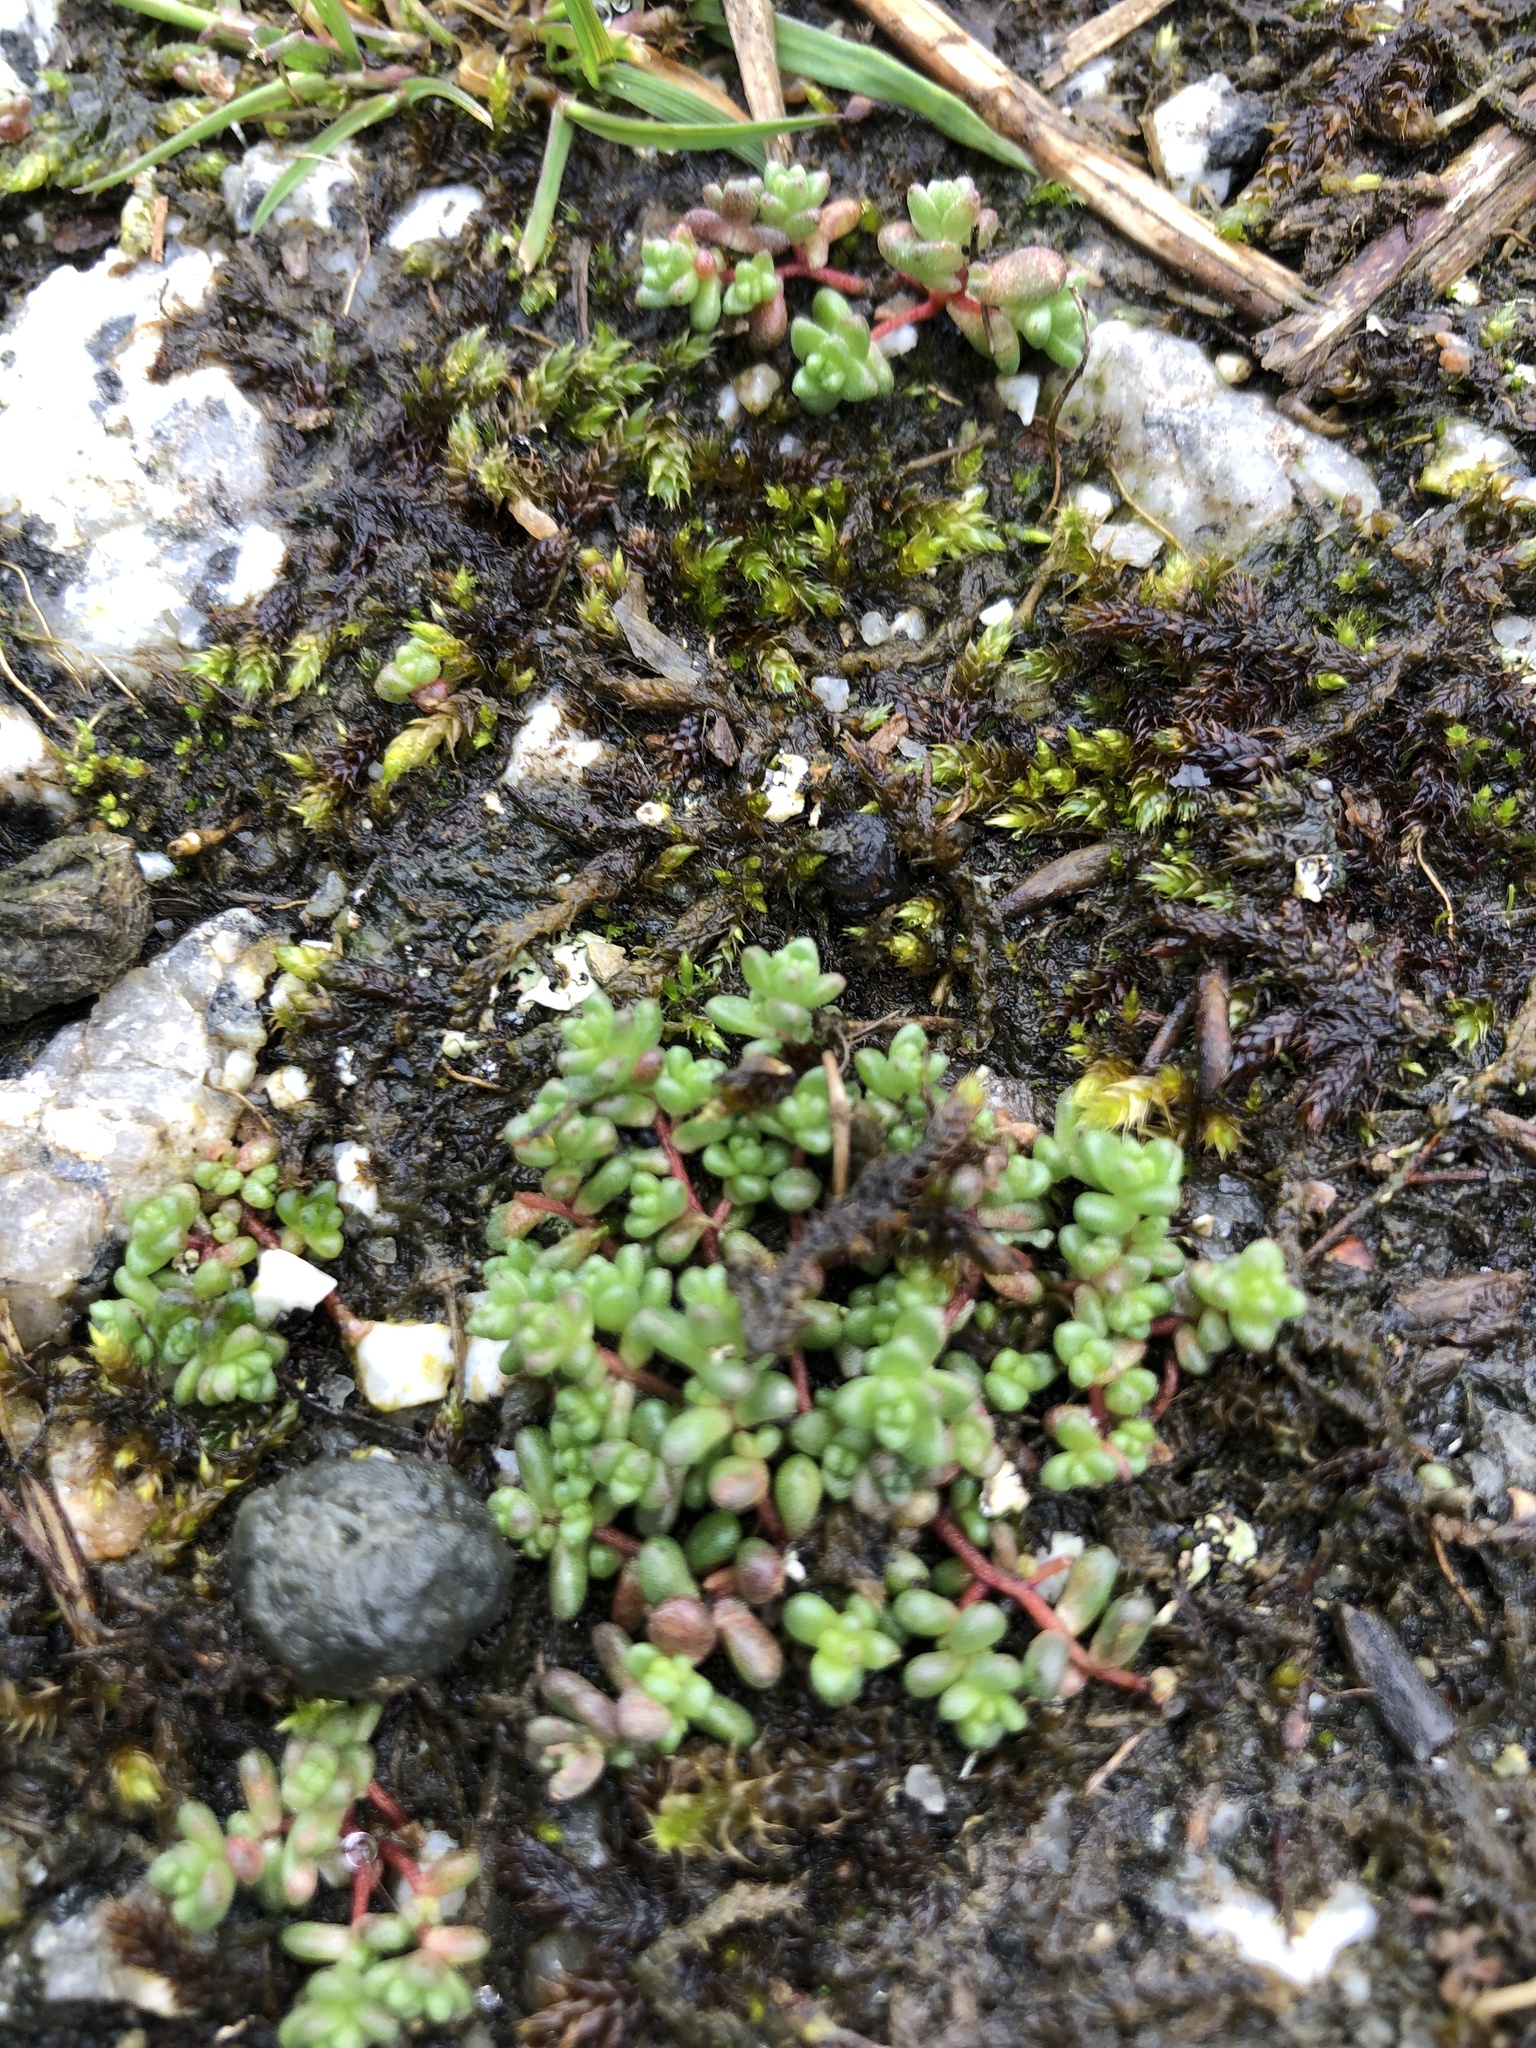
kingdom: Plantae
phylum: Tracheophyta
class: Magnoliopsida
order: Saxifragales
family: Crassulaceae
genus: Sedum
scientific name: Sedum anglicum
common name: English stonecrop
